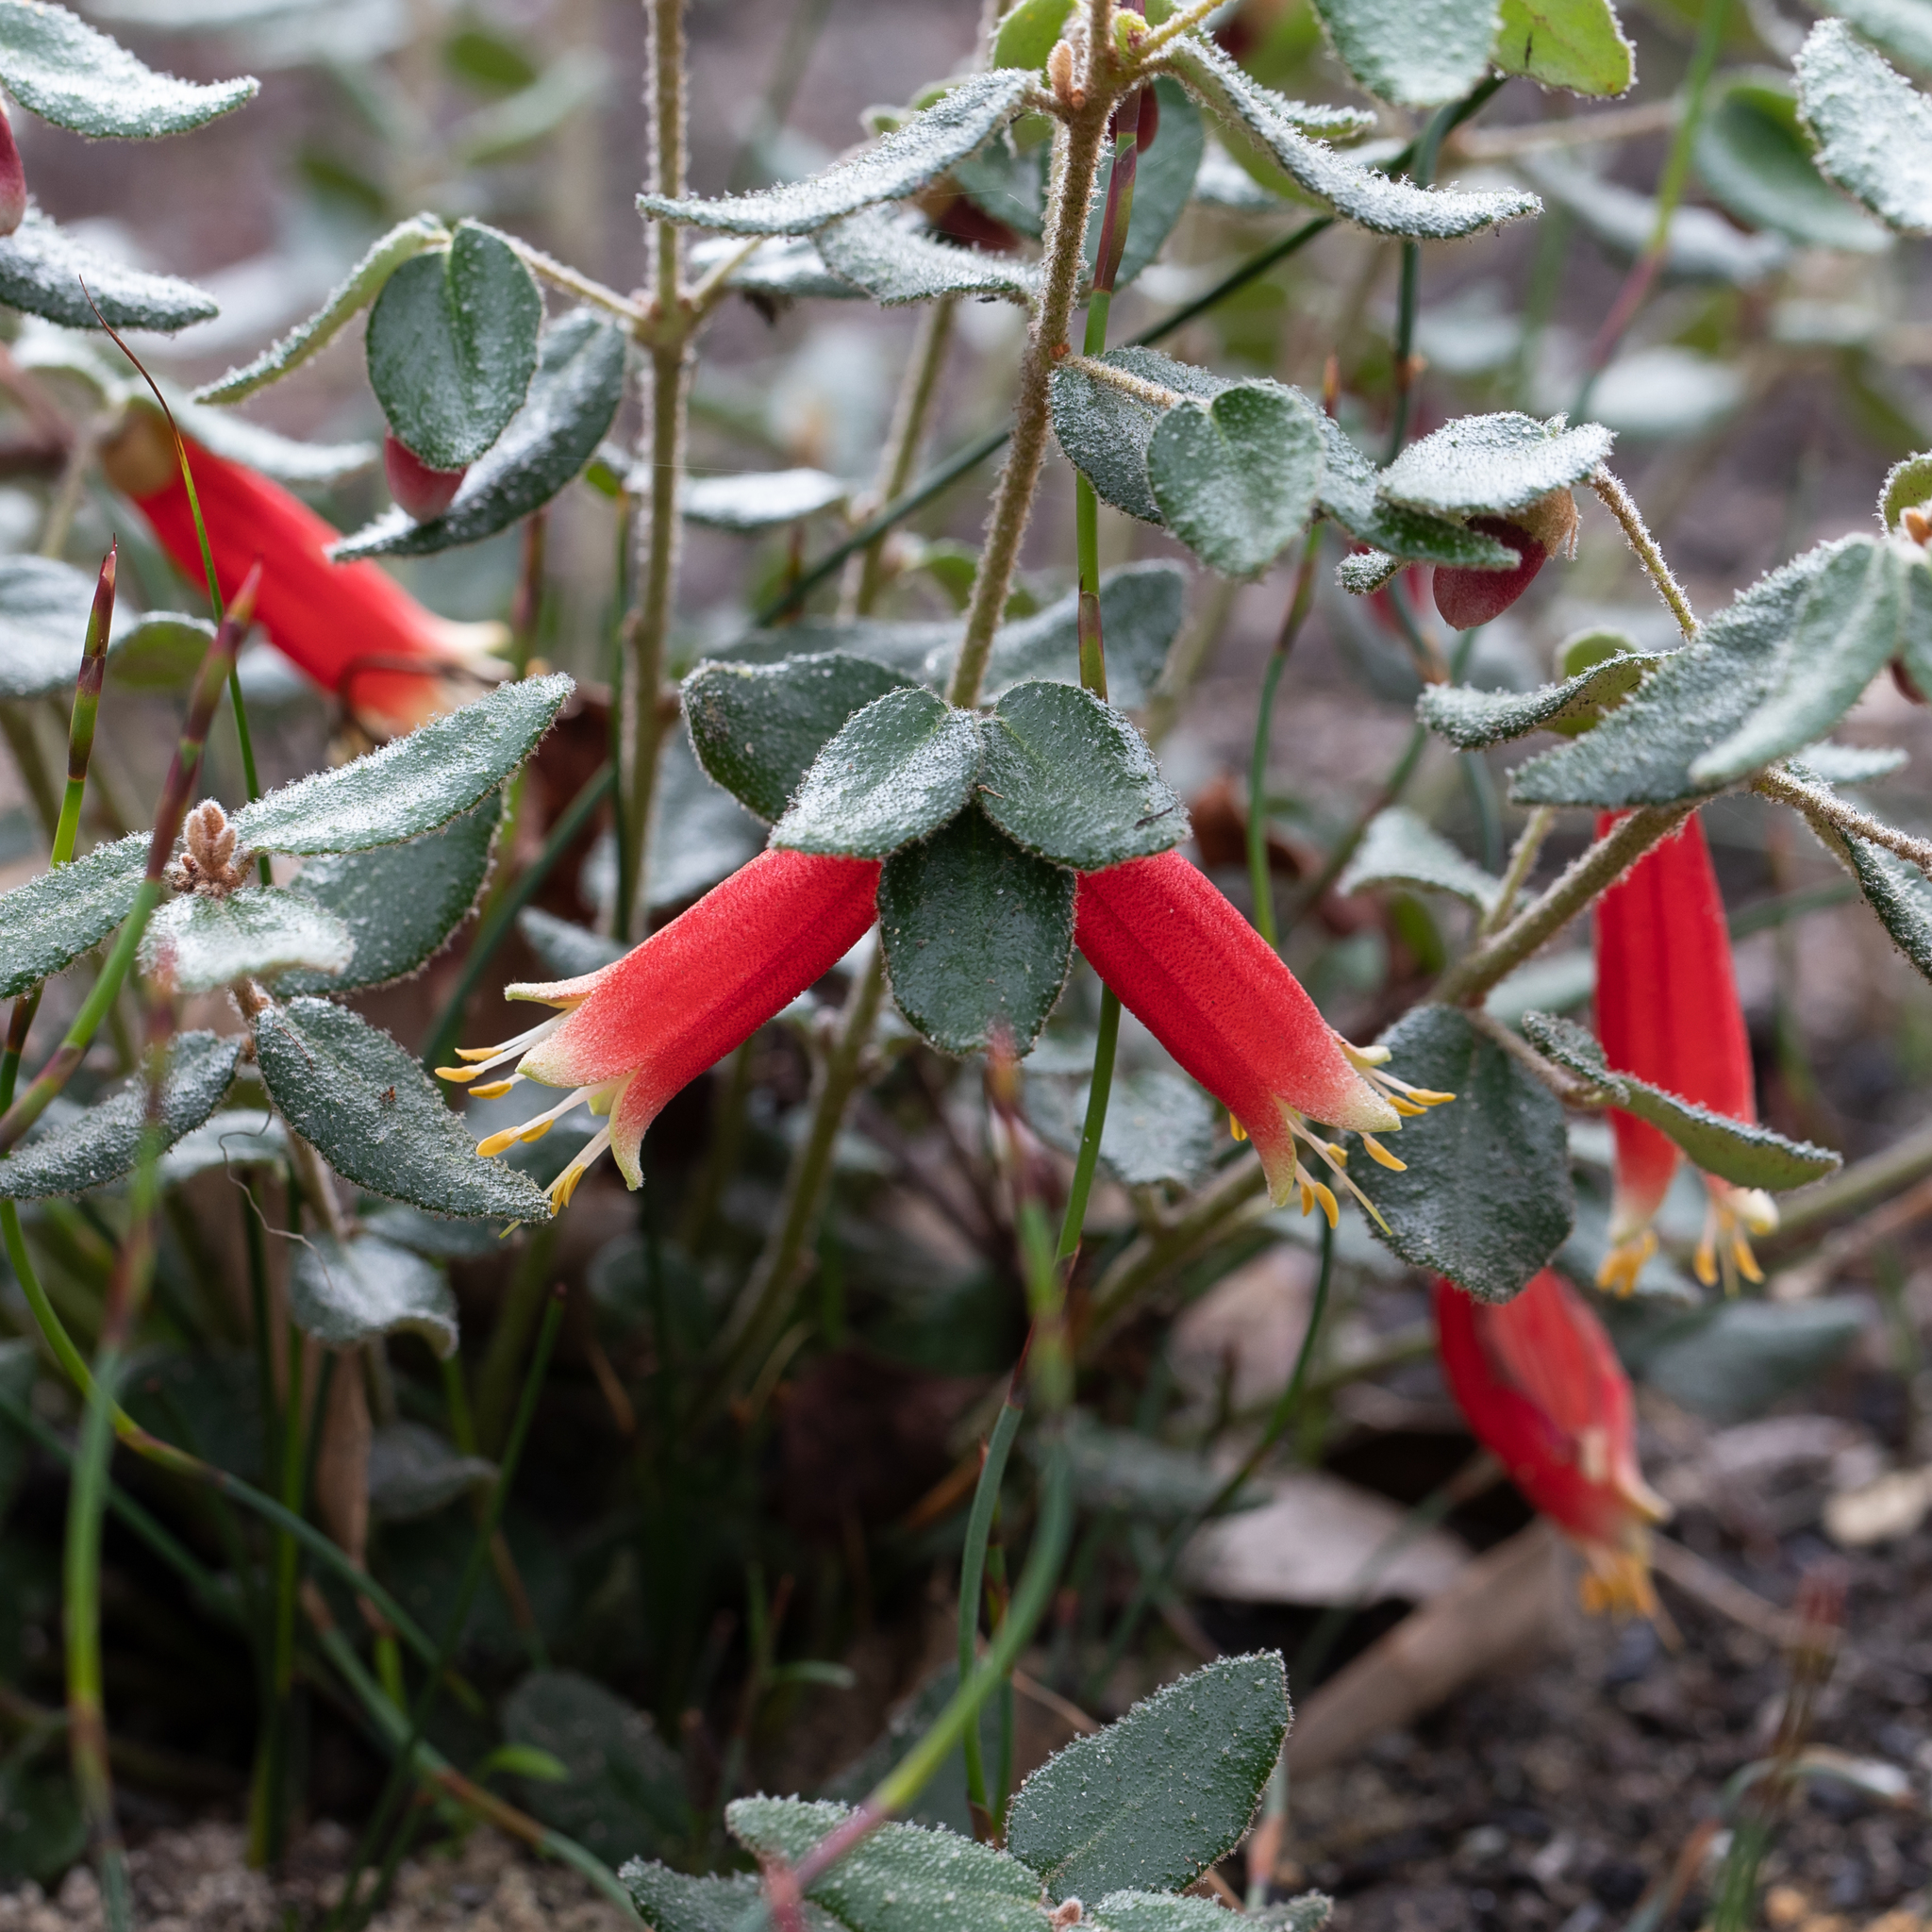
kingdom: Plantae
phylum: Tracheophyta
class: Magnoliopsida
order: Sapindales
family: Rutaceae
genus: Correa
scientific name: Correa reflexa
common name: Common correa
